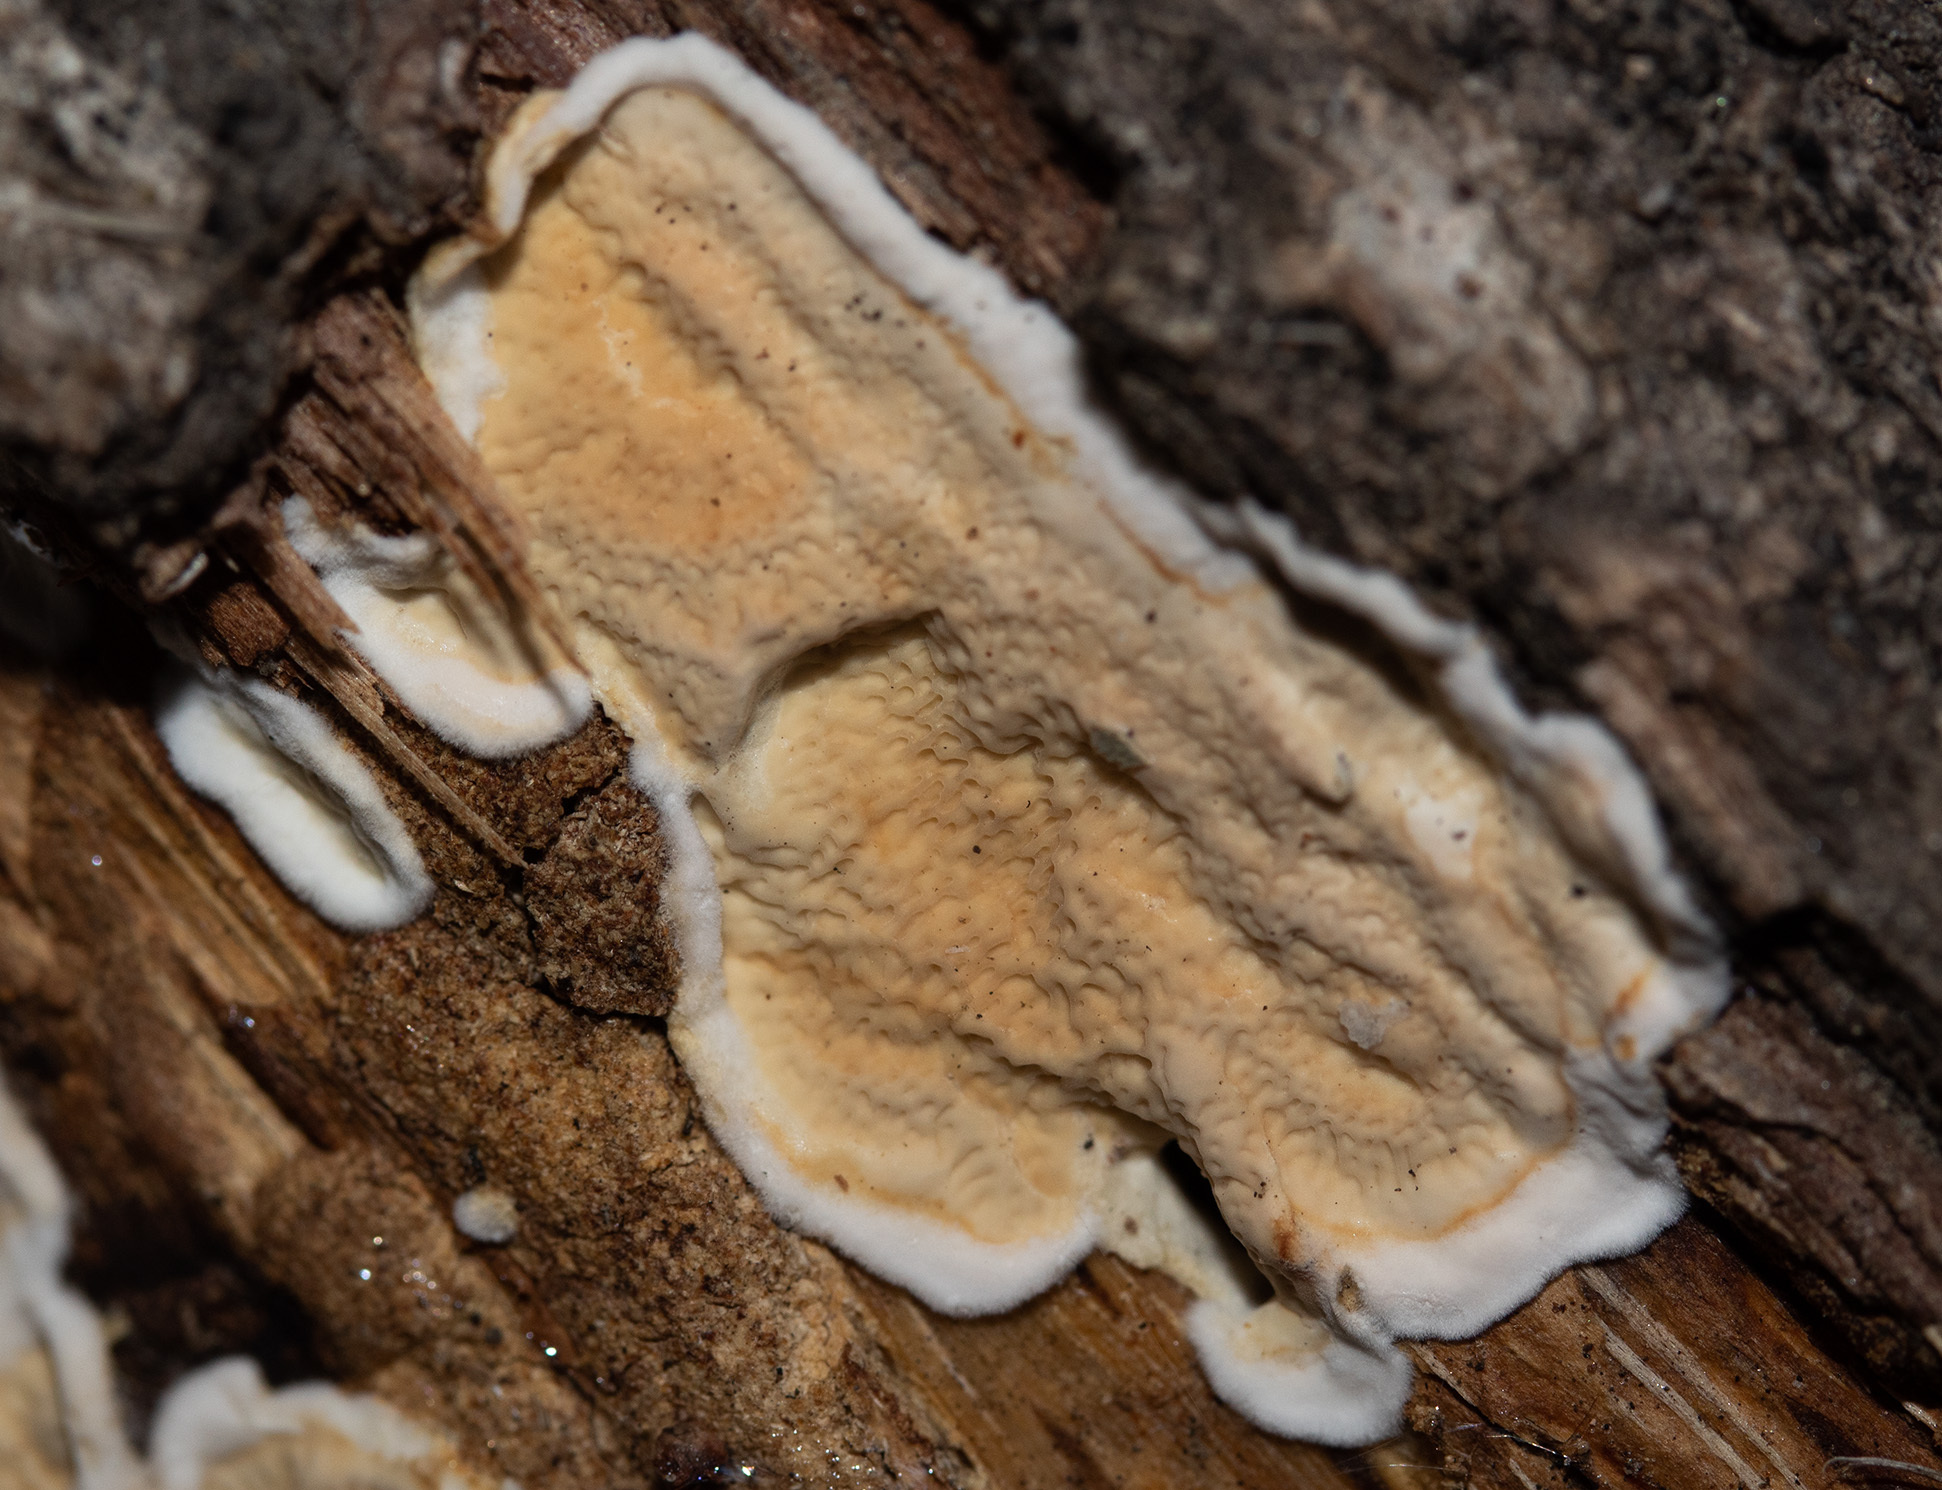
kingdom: Fungi
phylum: Basidiomycota
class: Agaricomycetes
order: Polyporales
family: Irpicaceae
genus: Byssomerulius
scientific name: Byssomerulius corium
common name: Netted crust
